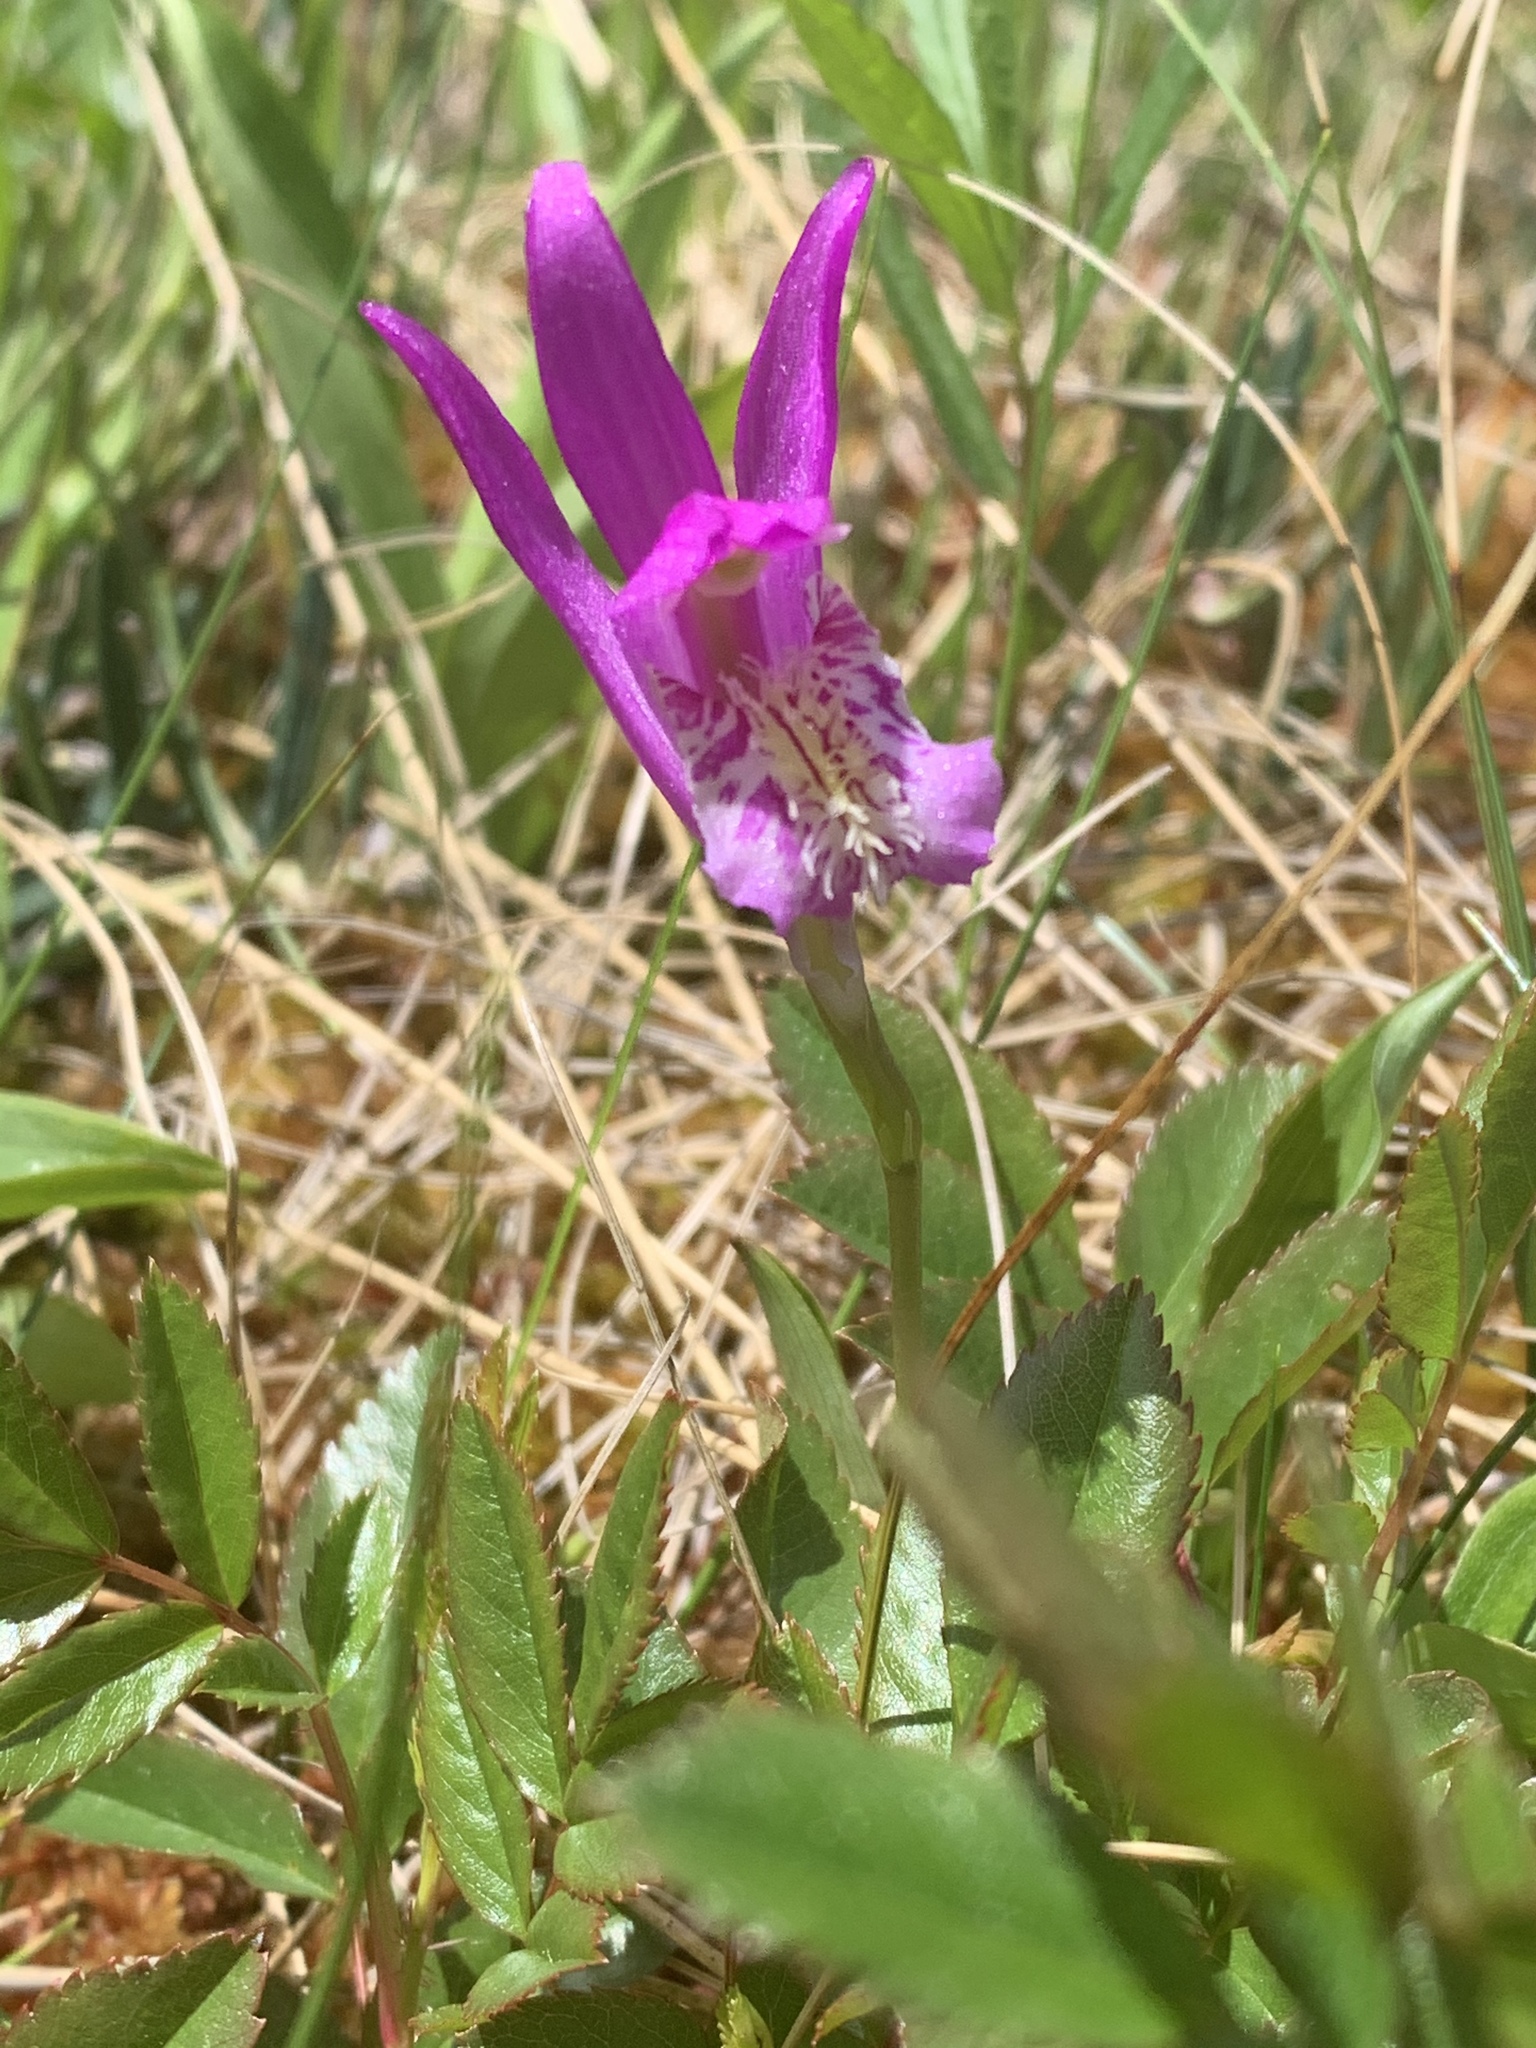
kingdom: Plantae
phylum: Tracheophyta
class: Liliopsida
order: Asparagales
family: Orchidaceae
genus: Arethusa
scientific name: Arethusa bulbosa
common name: Arethusa
